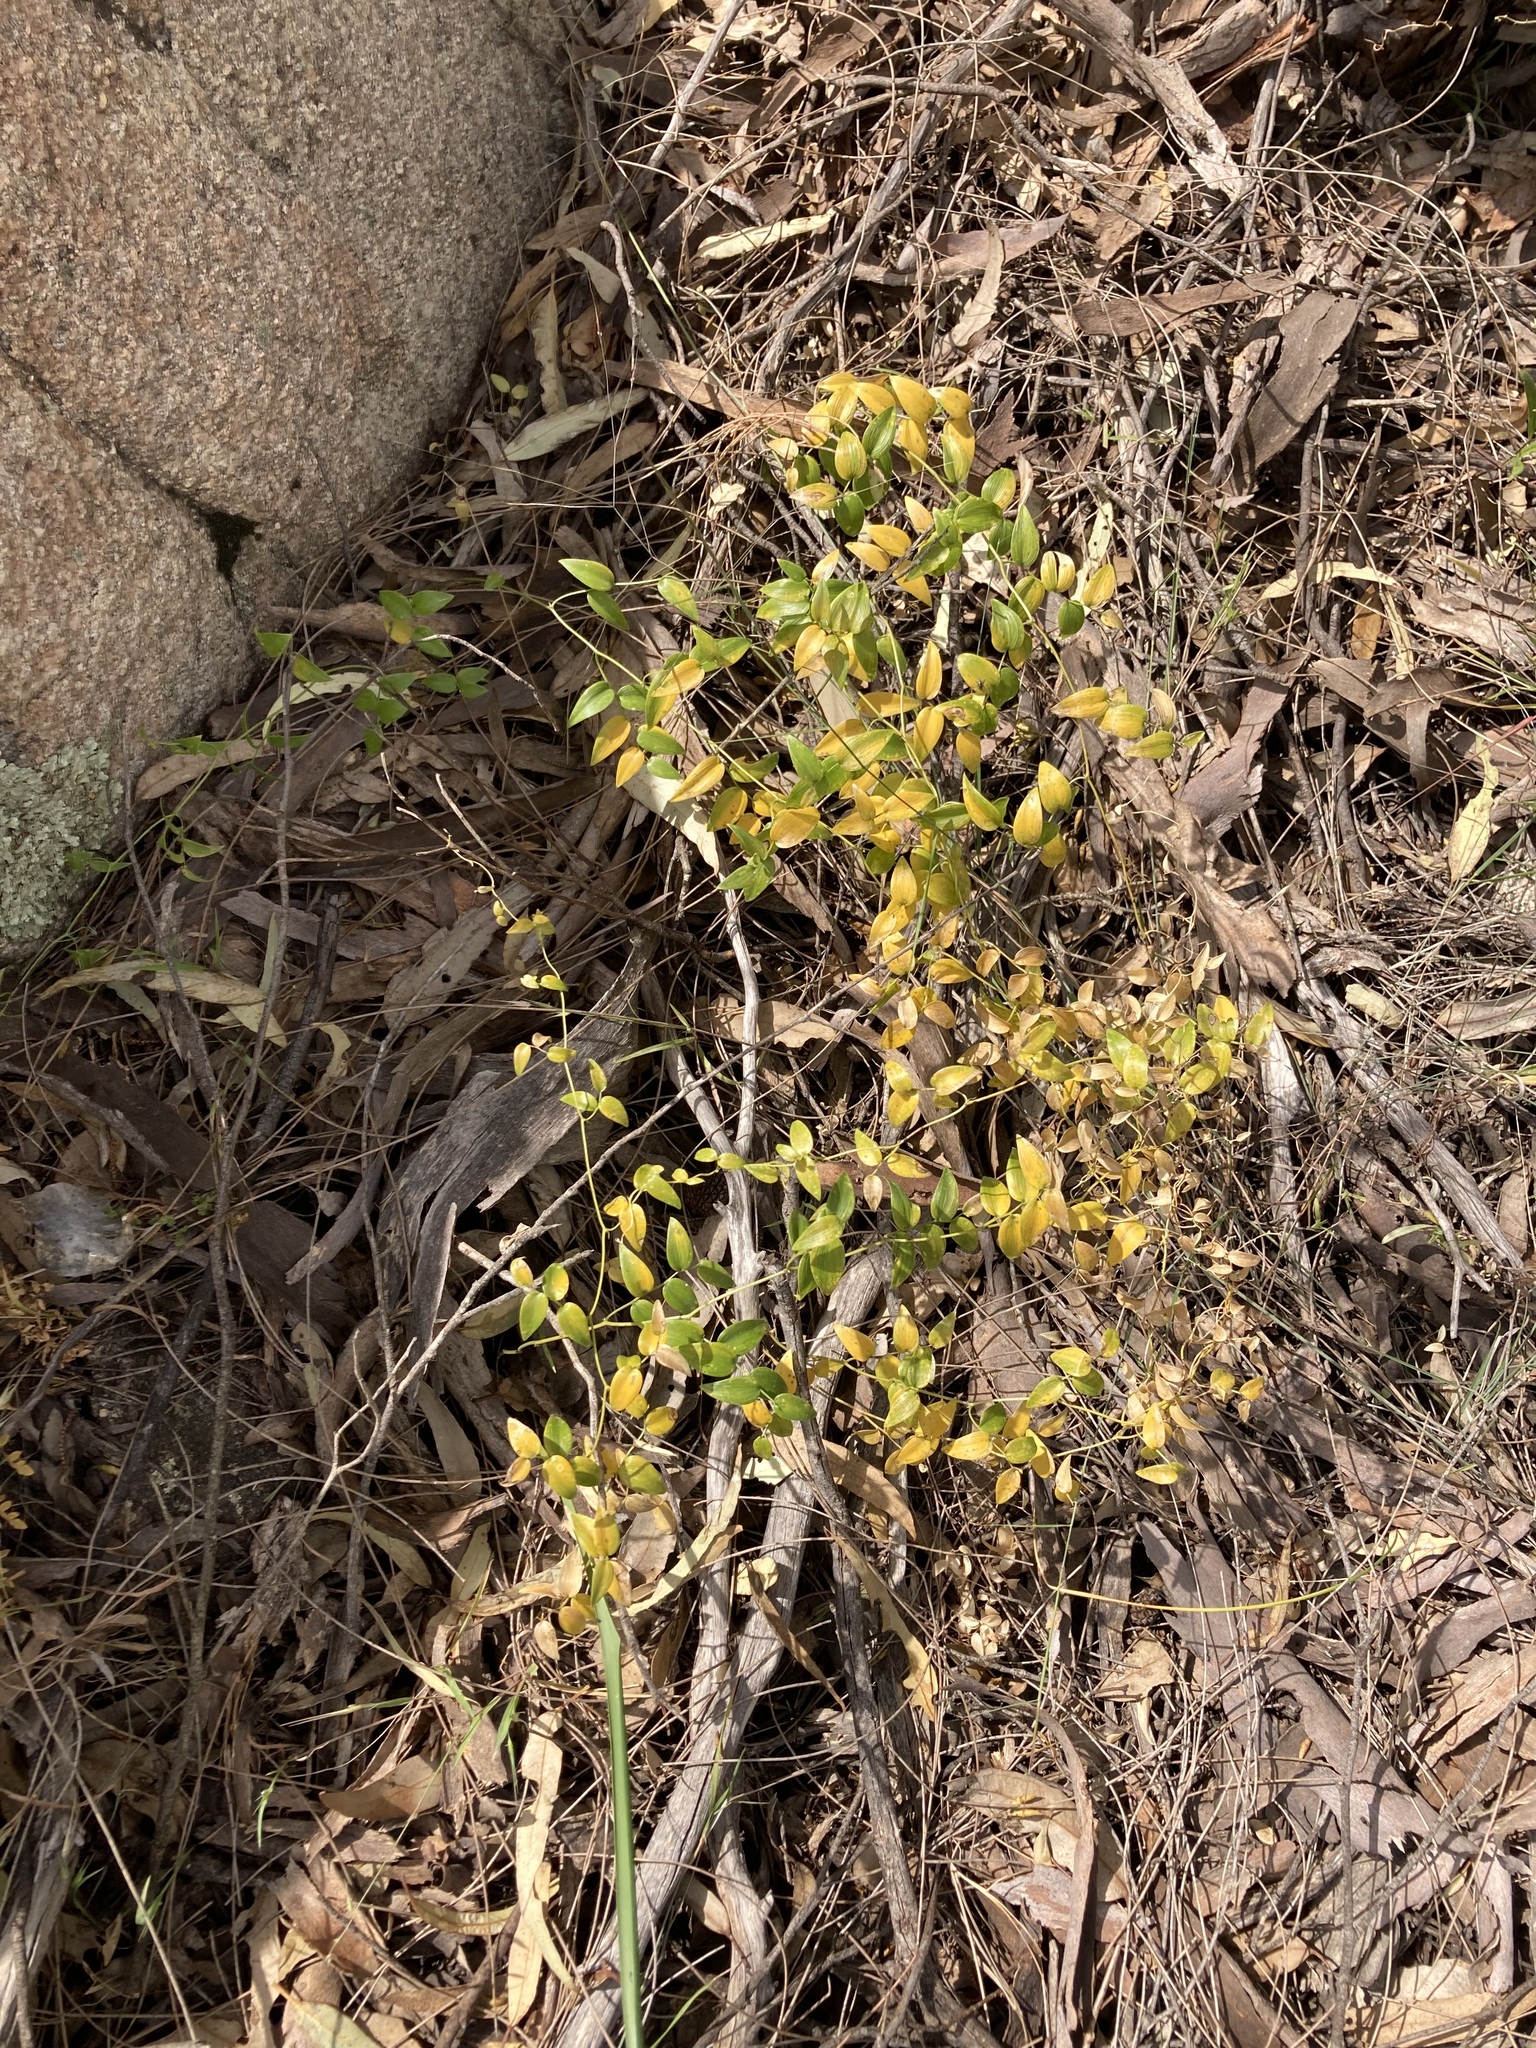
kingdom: Plantae
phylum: Tracheophyta
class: Liliopsida
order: Asparagales
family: Asparagaceae
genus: Asparagus
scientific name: Asparagus asparagoides
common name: African asparagus fern
